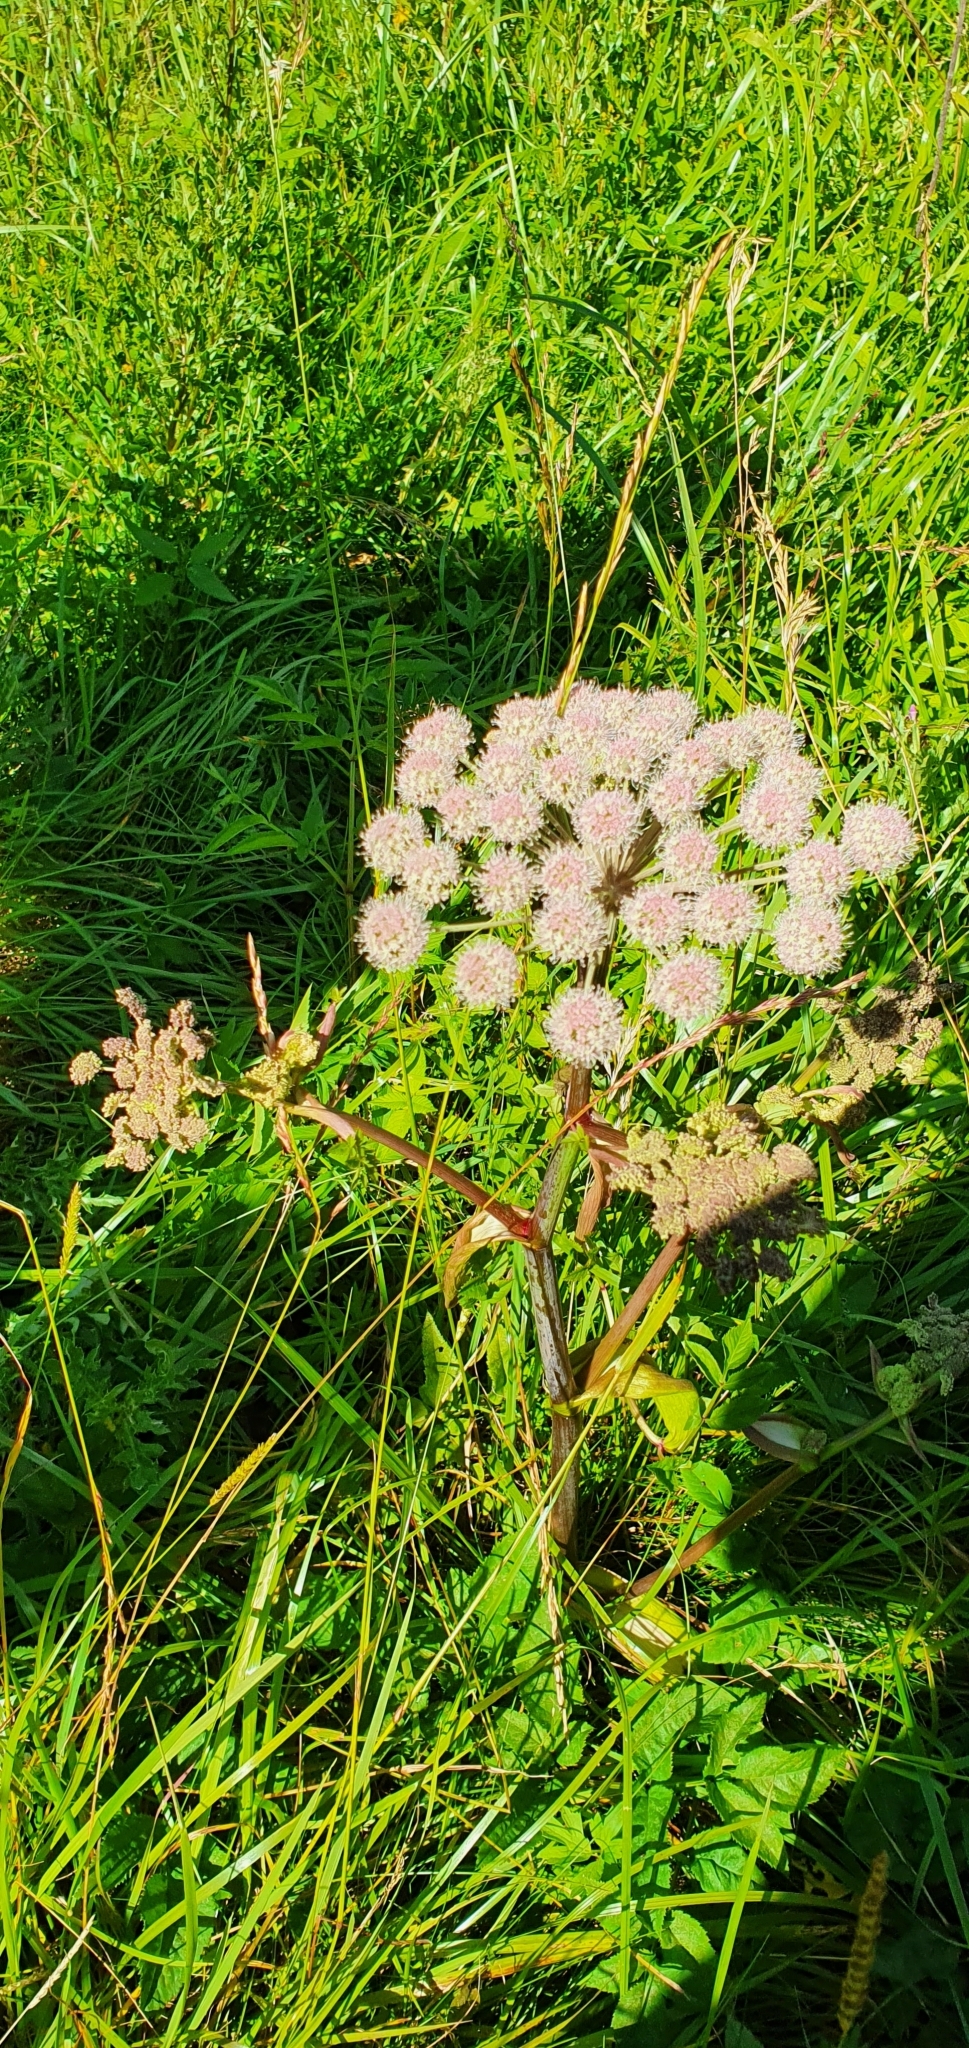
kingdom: Plantae
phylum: Tracheophyta
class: Magnoliopsida
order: Apiales
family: Apiaceae
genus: Angelica
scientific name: Angelica sylvestris
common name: Wild angelica
